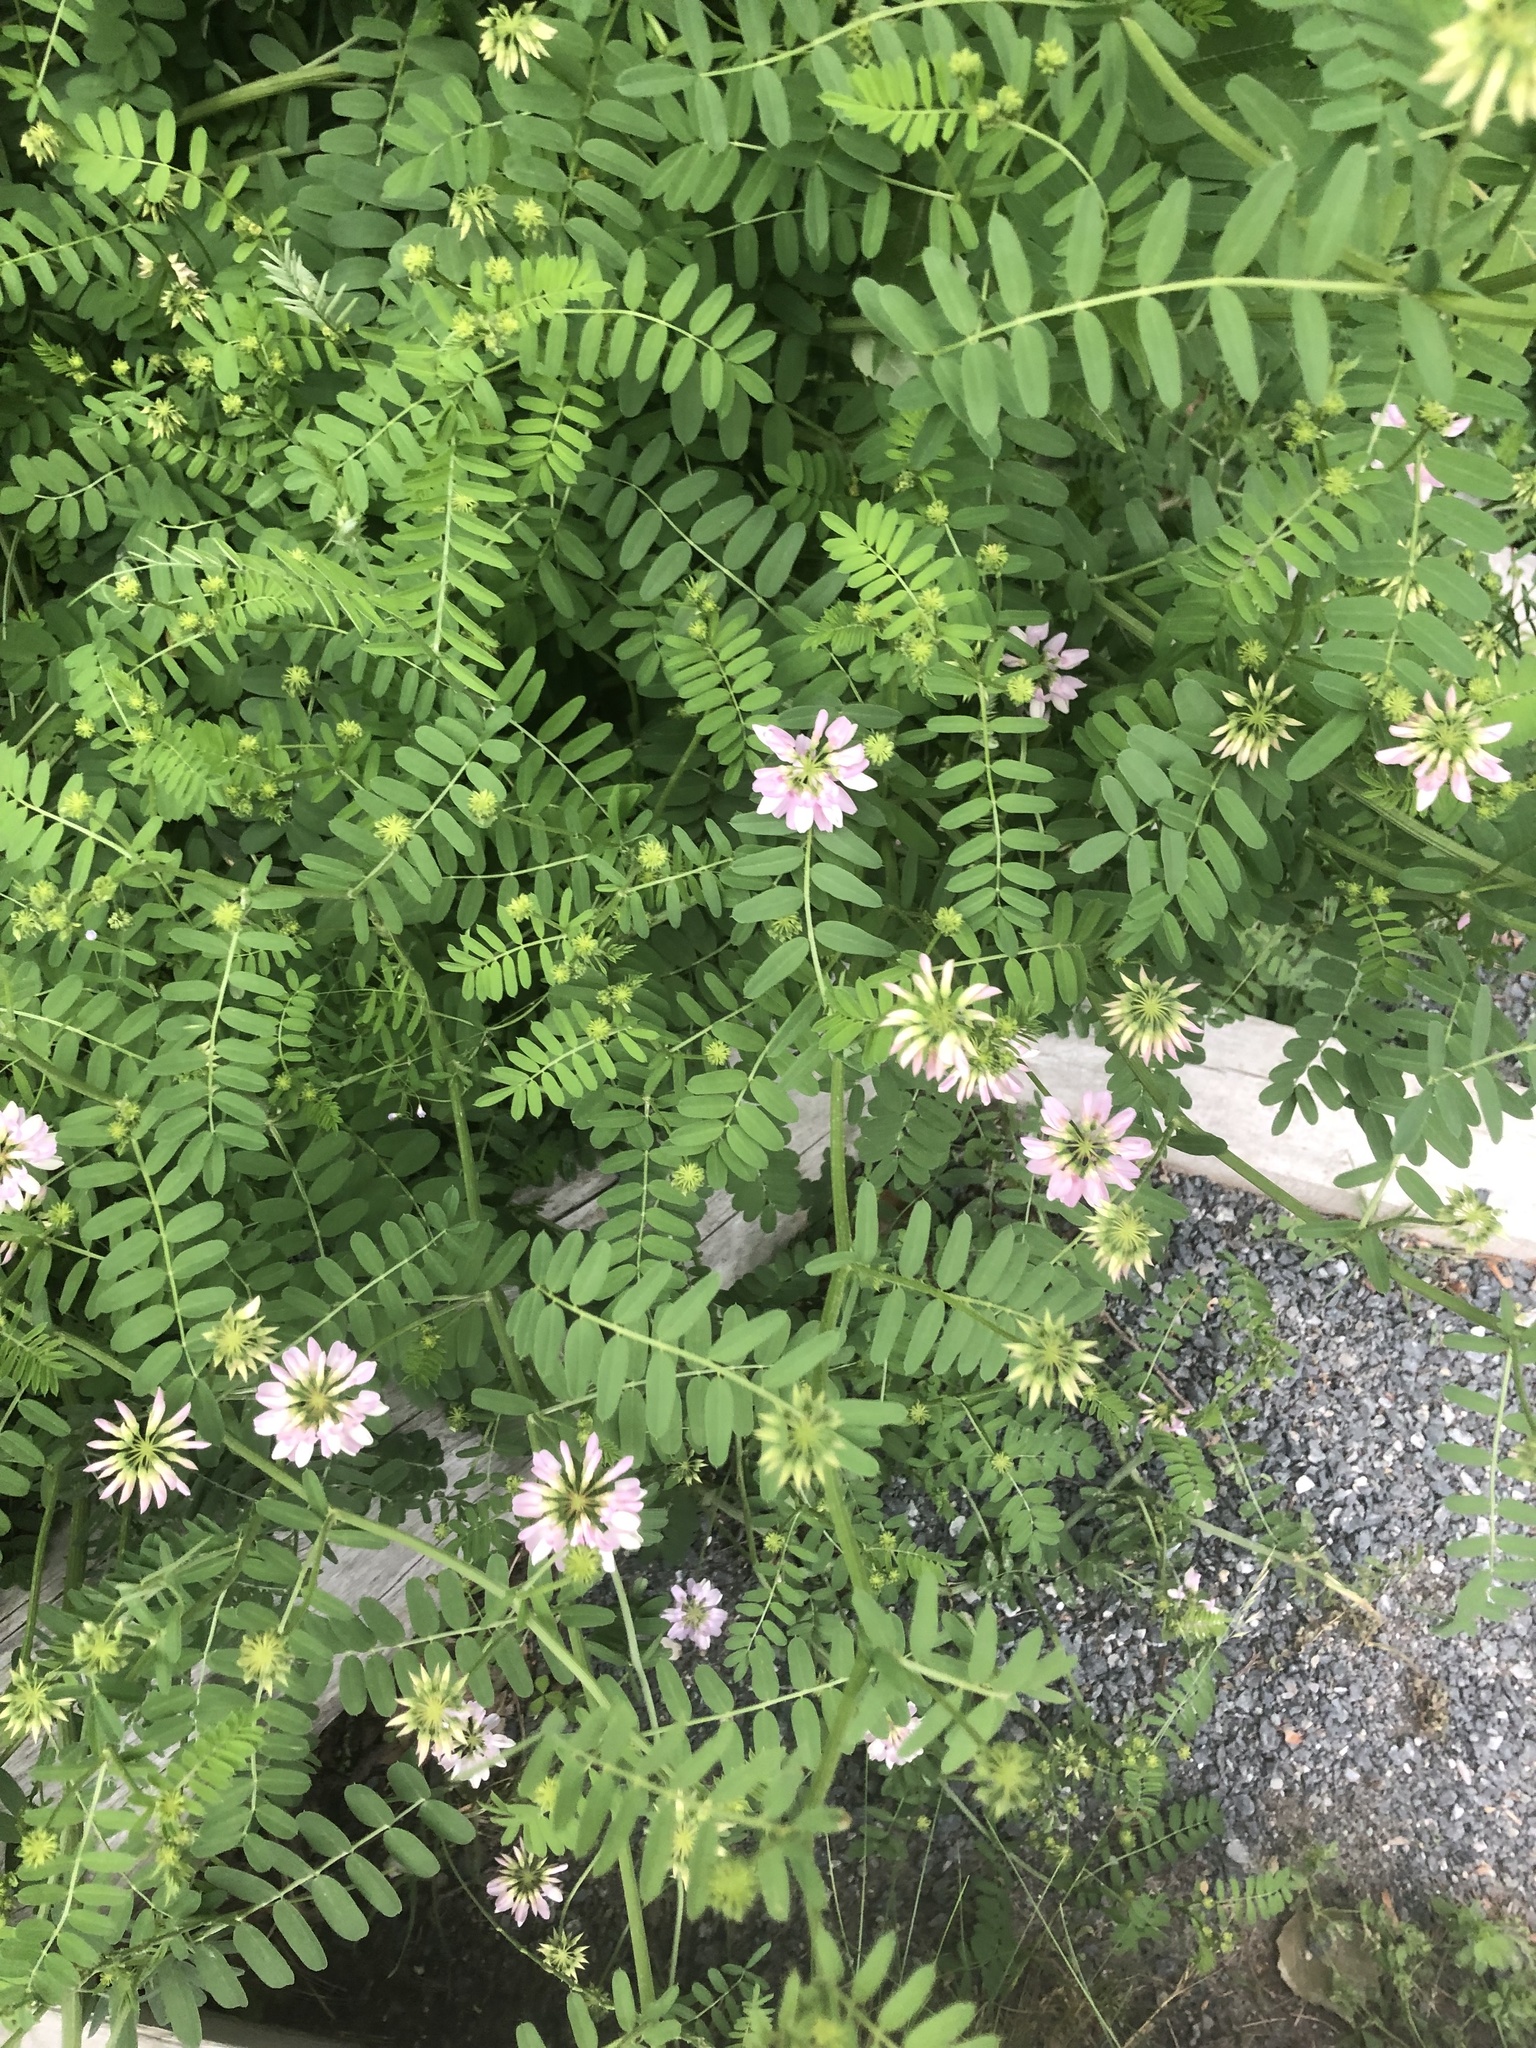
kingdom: Plantae
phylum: Tracheophyta
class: Magnoliopsida
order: Fabales
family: Fabaceae
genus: Coronilla
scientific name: Coronilla varia
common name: Crownvetch
